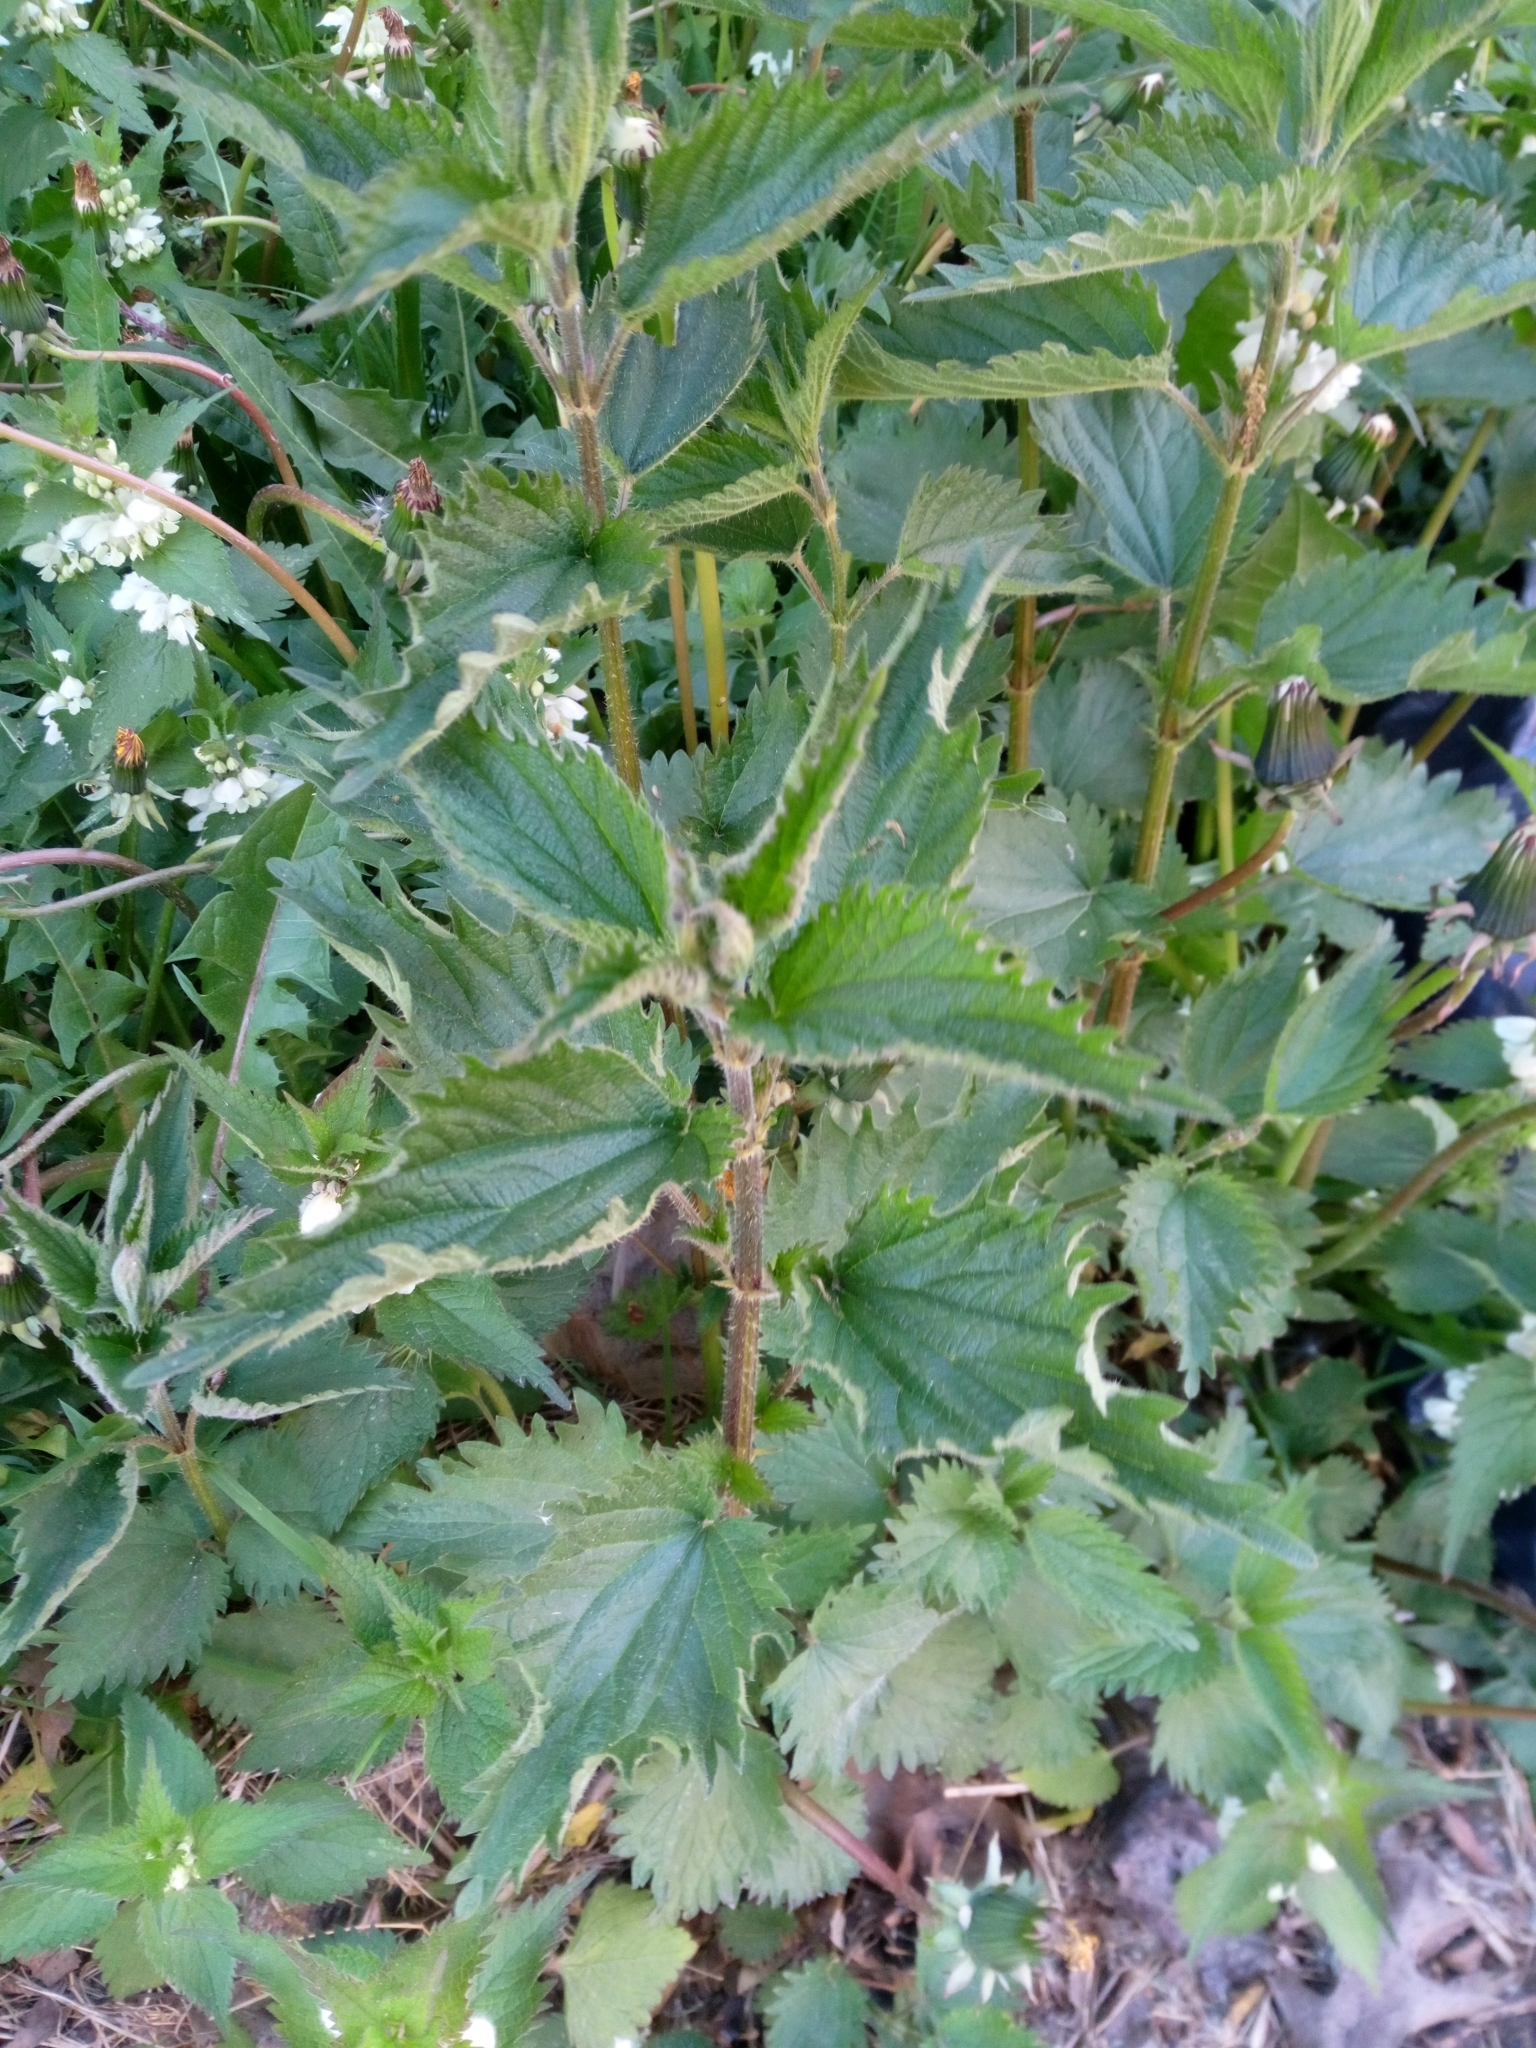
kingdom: Plantae
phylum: Tracheophyta
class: Magnoliopsida
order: Rosales
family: Urticaceae
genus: Urtica
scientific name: Urtica dioica
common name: Common nettle
